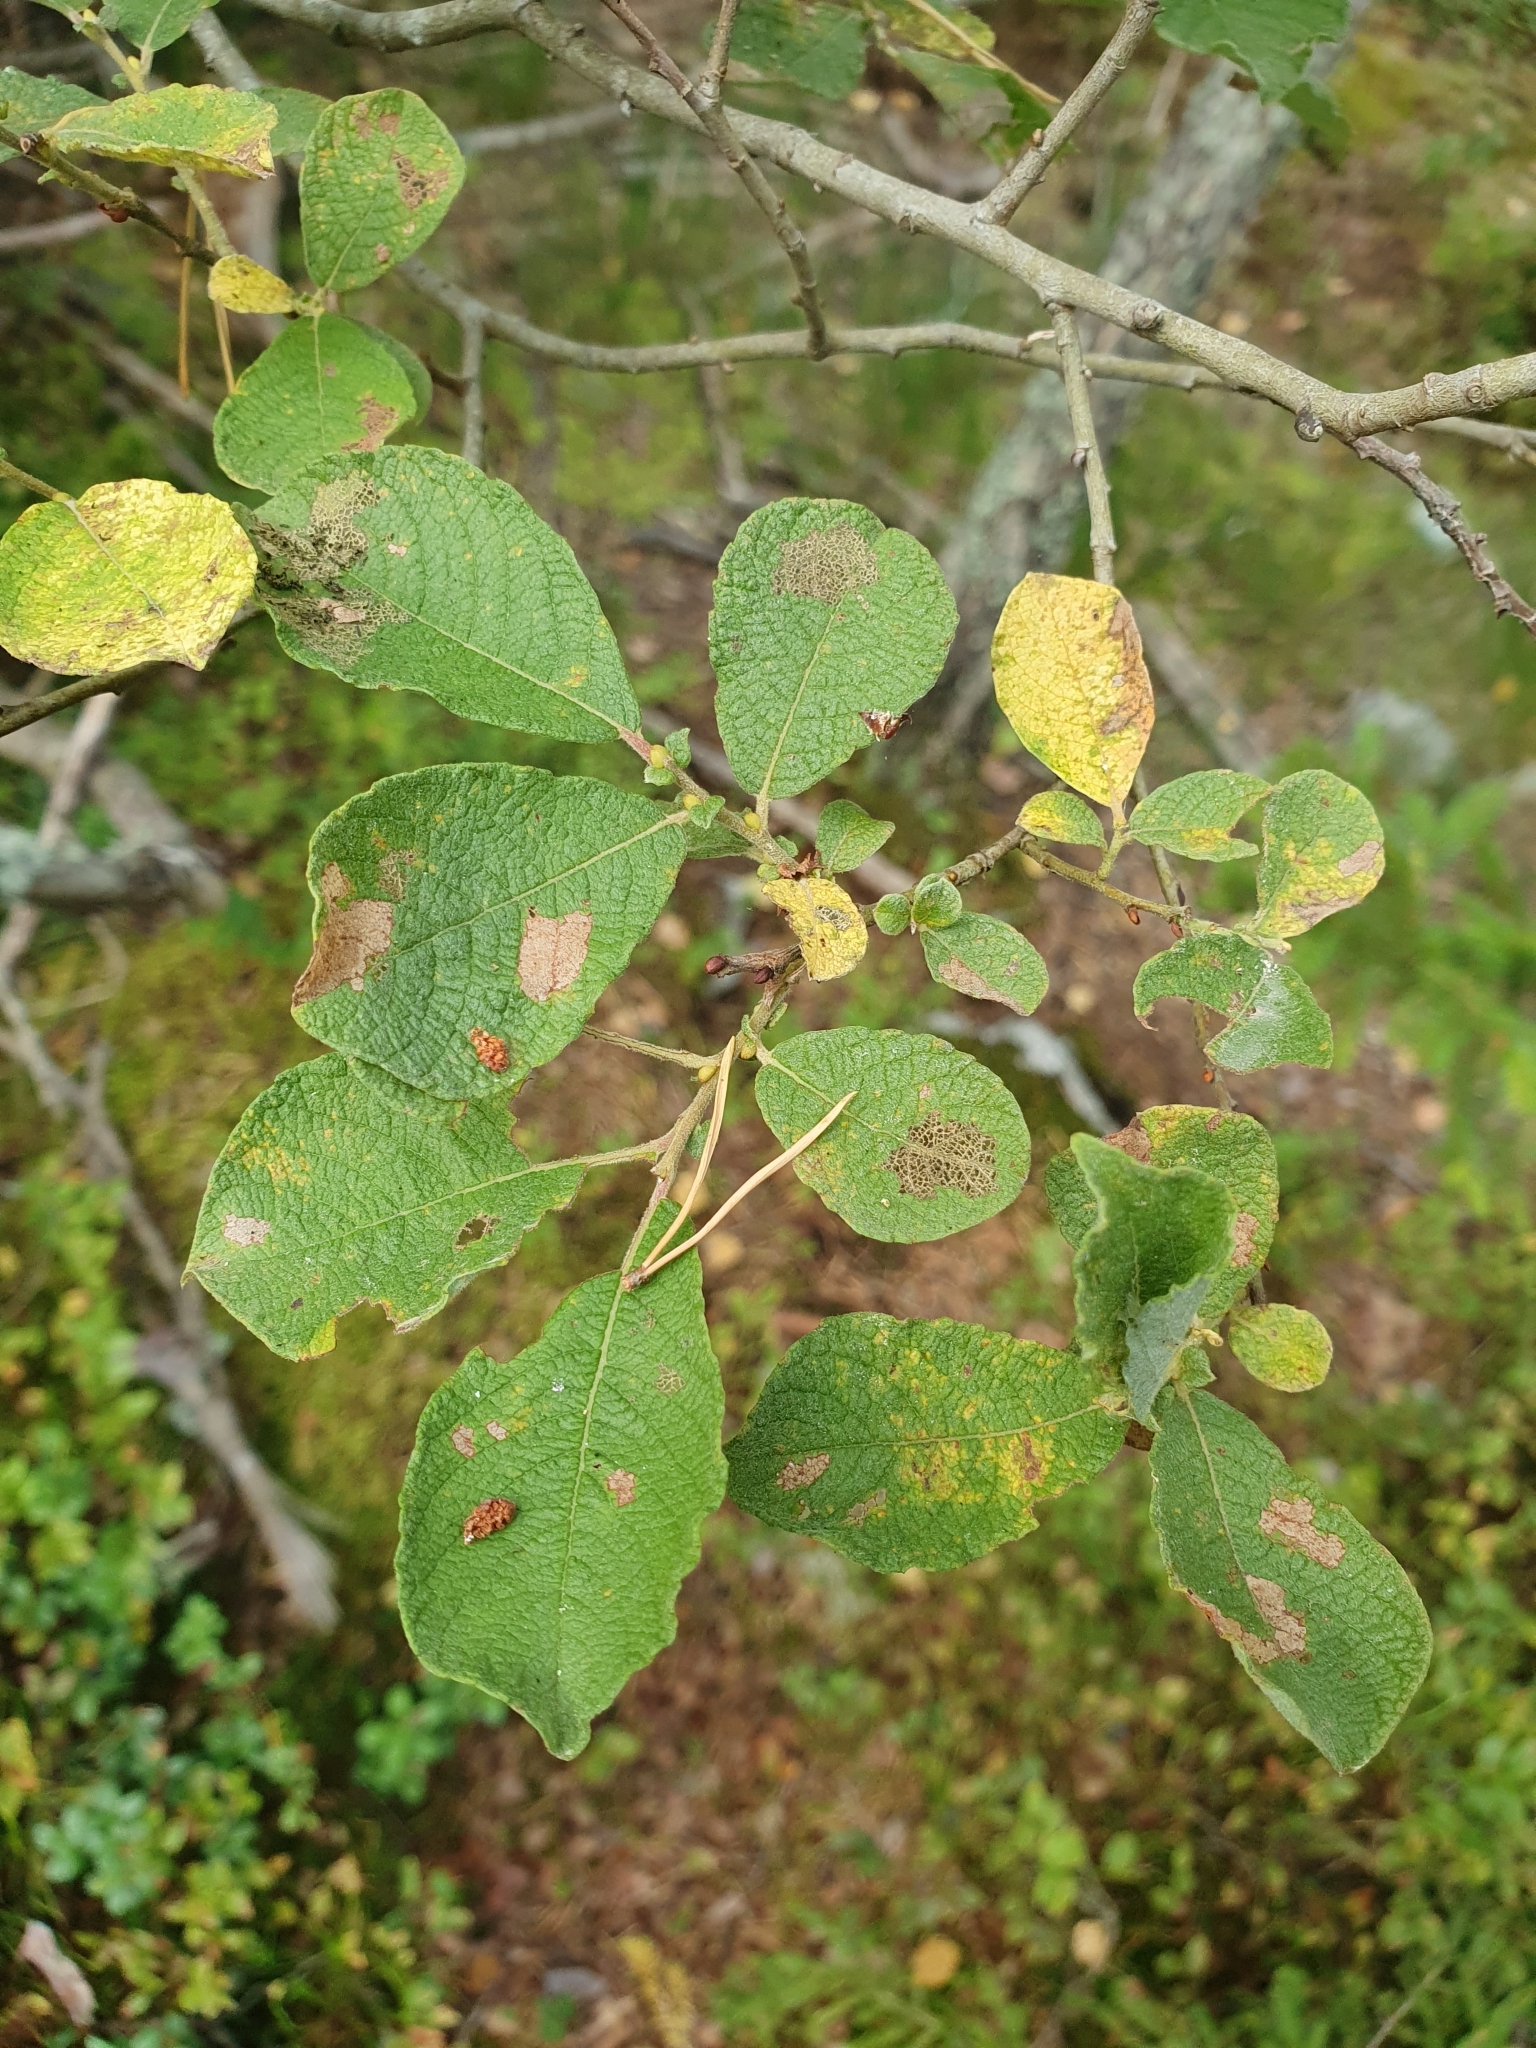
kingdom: Plantae
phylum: Tracheophyta
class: Magnoliopsida
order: Malpighiales
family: Salicaceae
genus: Salix
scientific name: Salix aurita
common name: Eared willow
